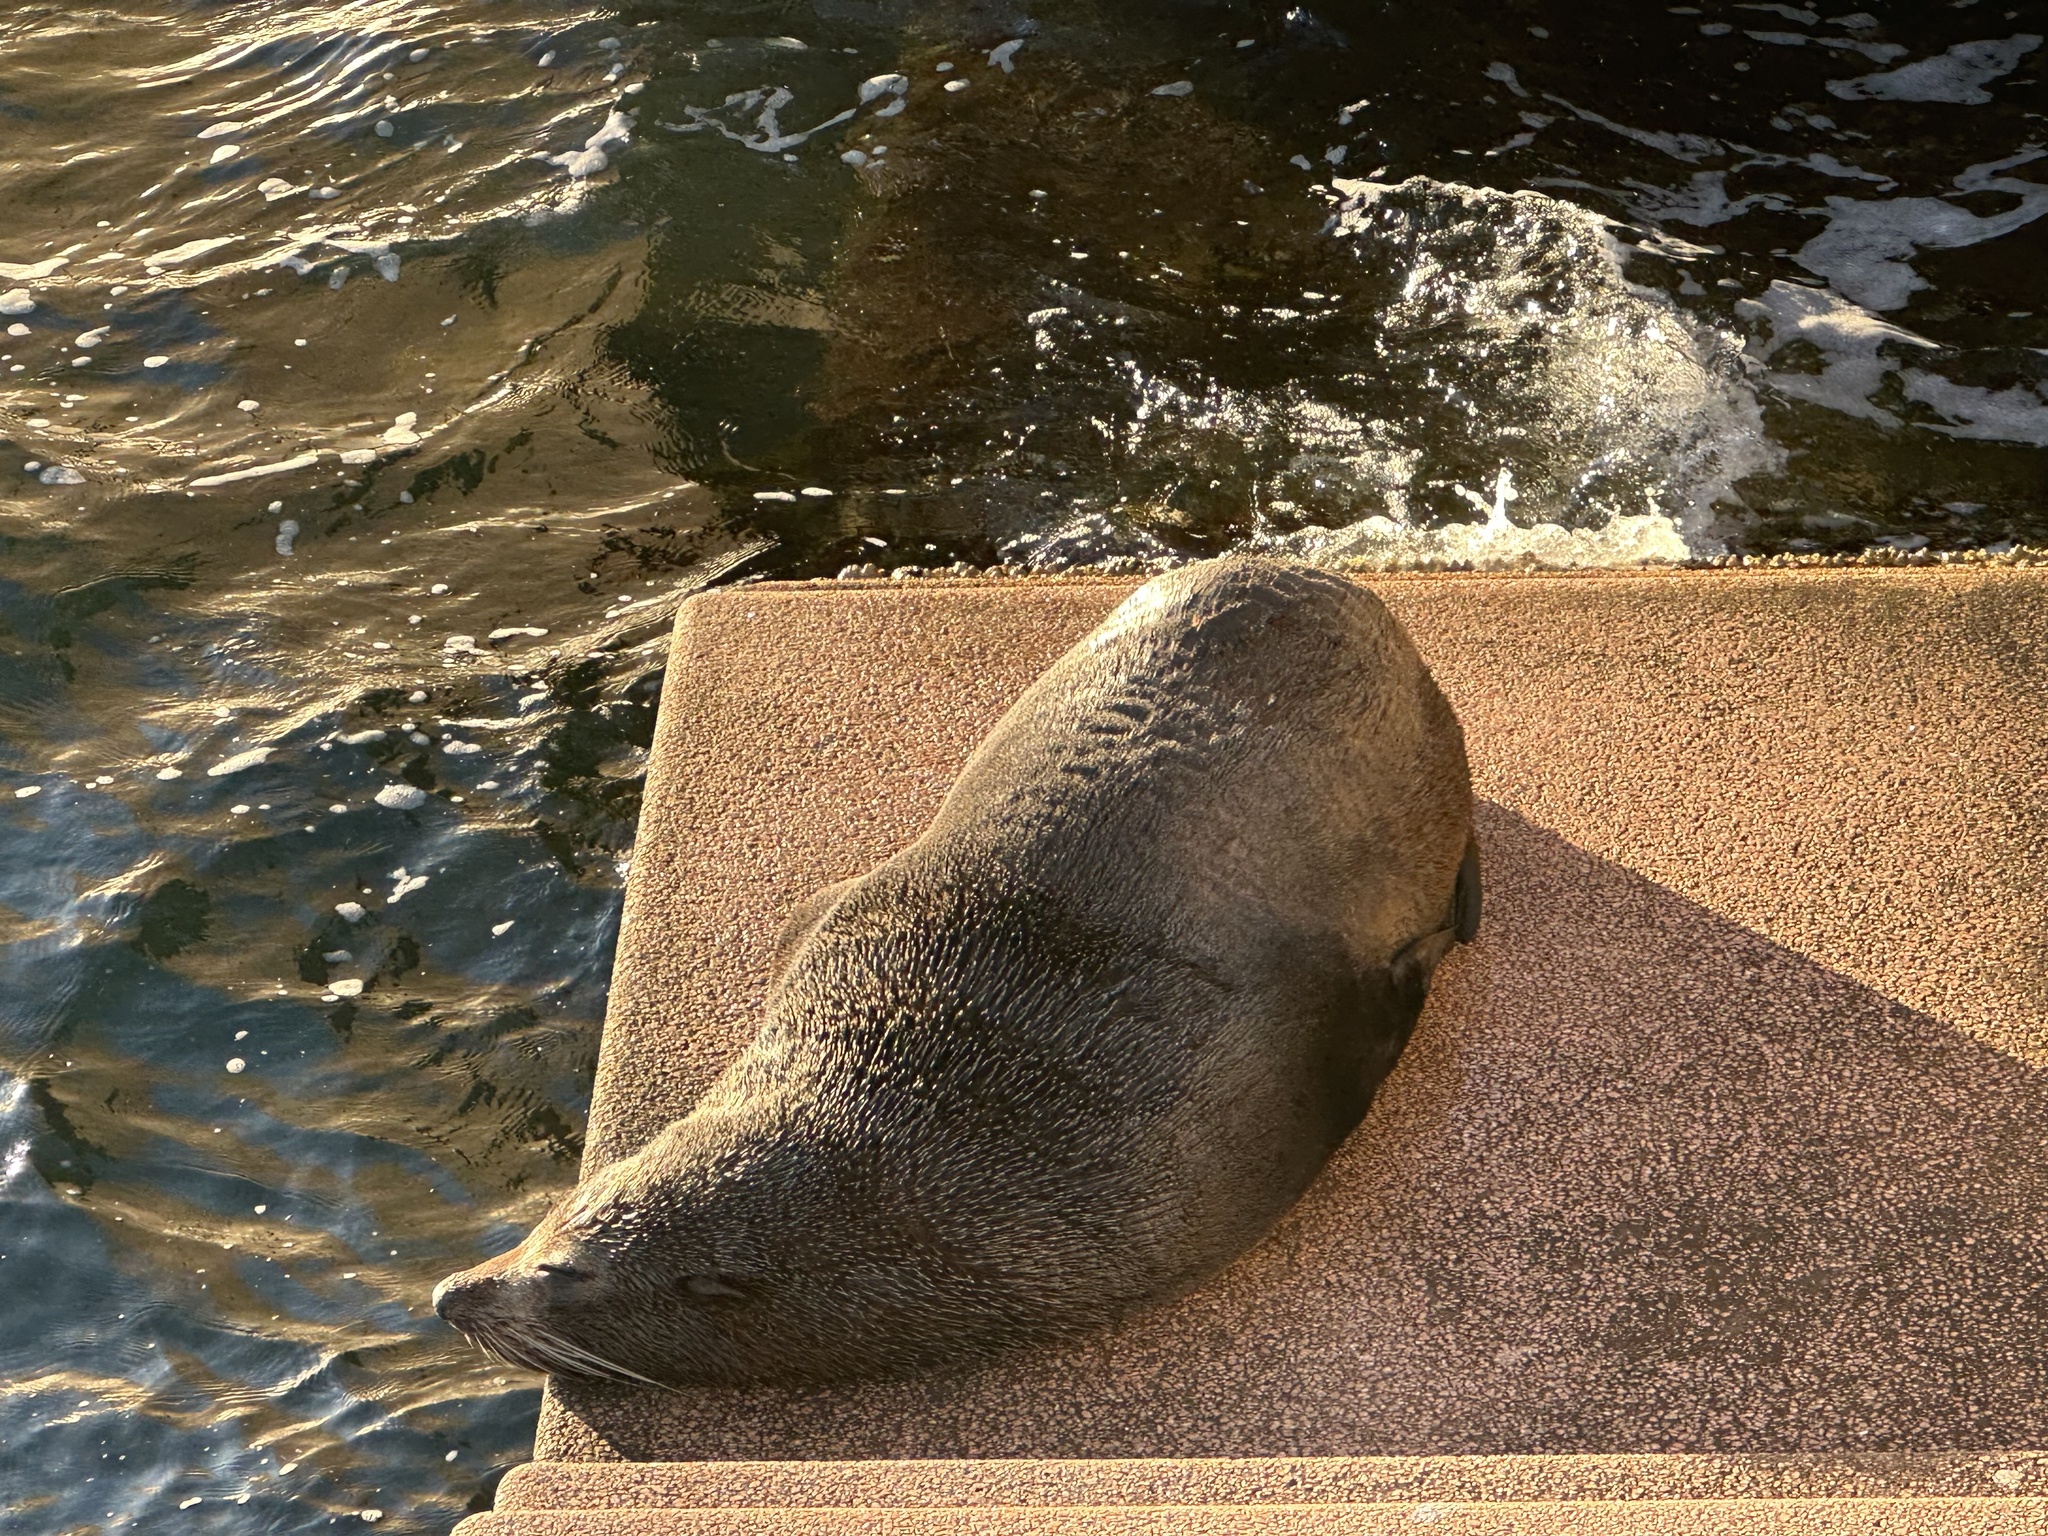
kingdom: Animalia
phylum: Chordata
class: Mammalia
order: Carnivora
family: Otariidae
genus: Arctocephalus
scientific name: Arctocephalus forsteri
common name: New zealand fur seal
